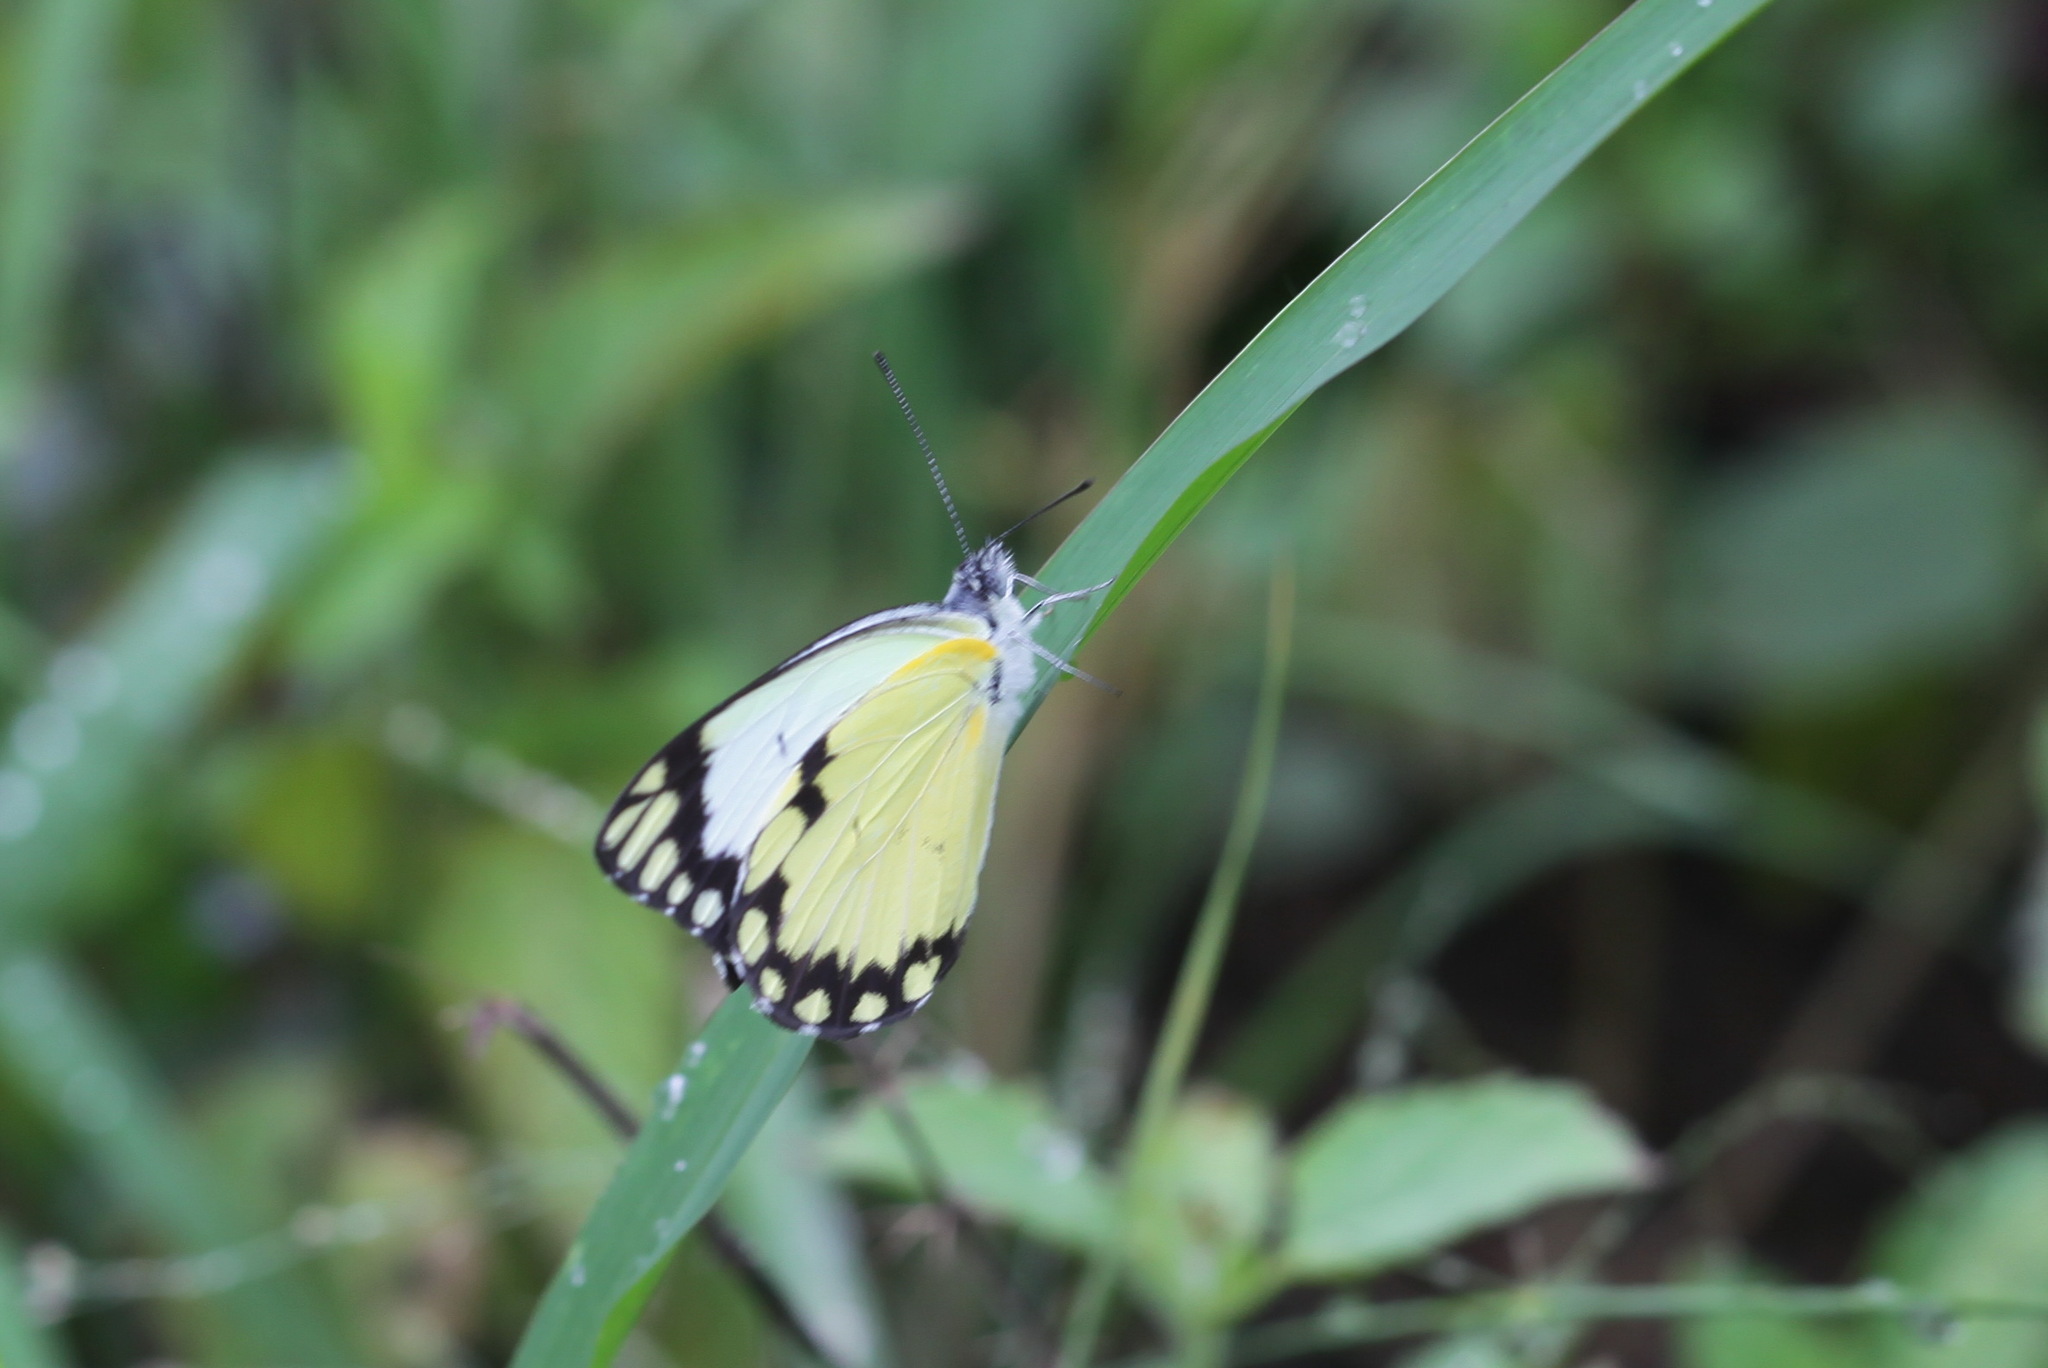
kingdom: Animalia
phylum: Arthropoda
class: Insecta
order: Lepidoptera
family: Pieridae
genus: Belenois
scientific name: Belenois creona
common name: African caper white
